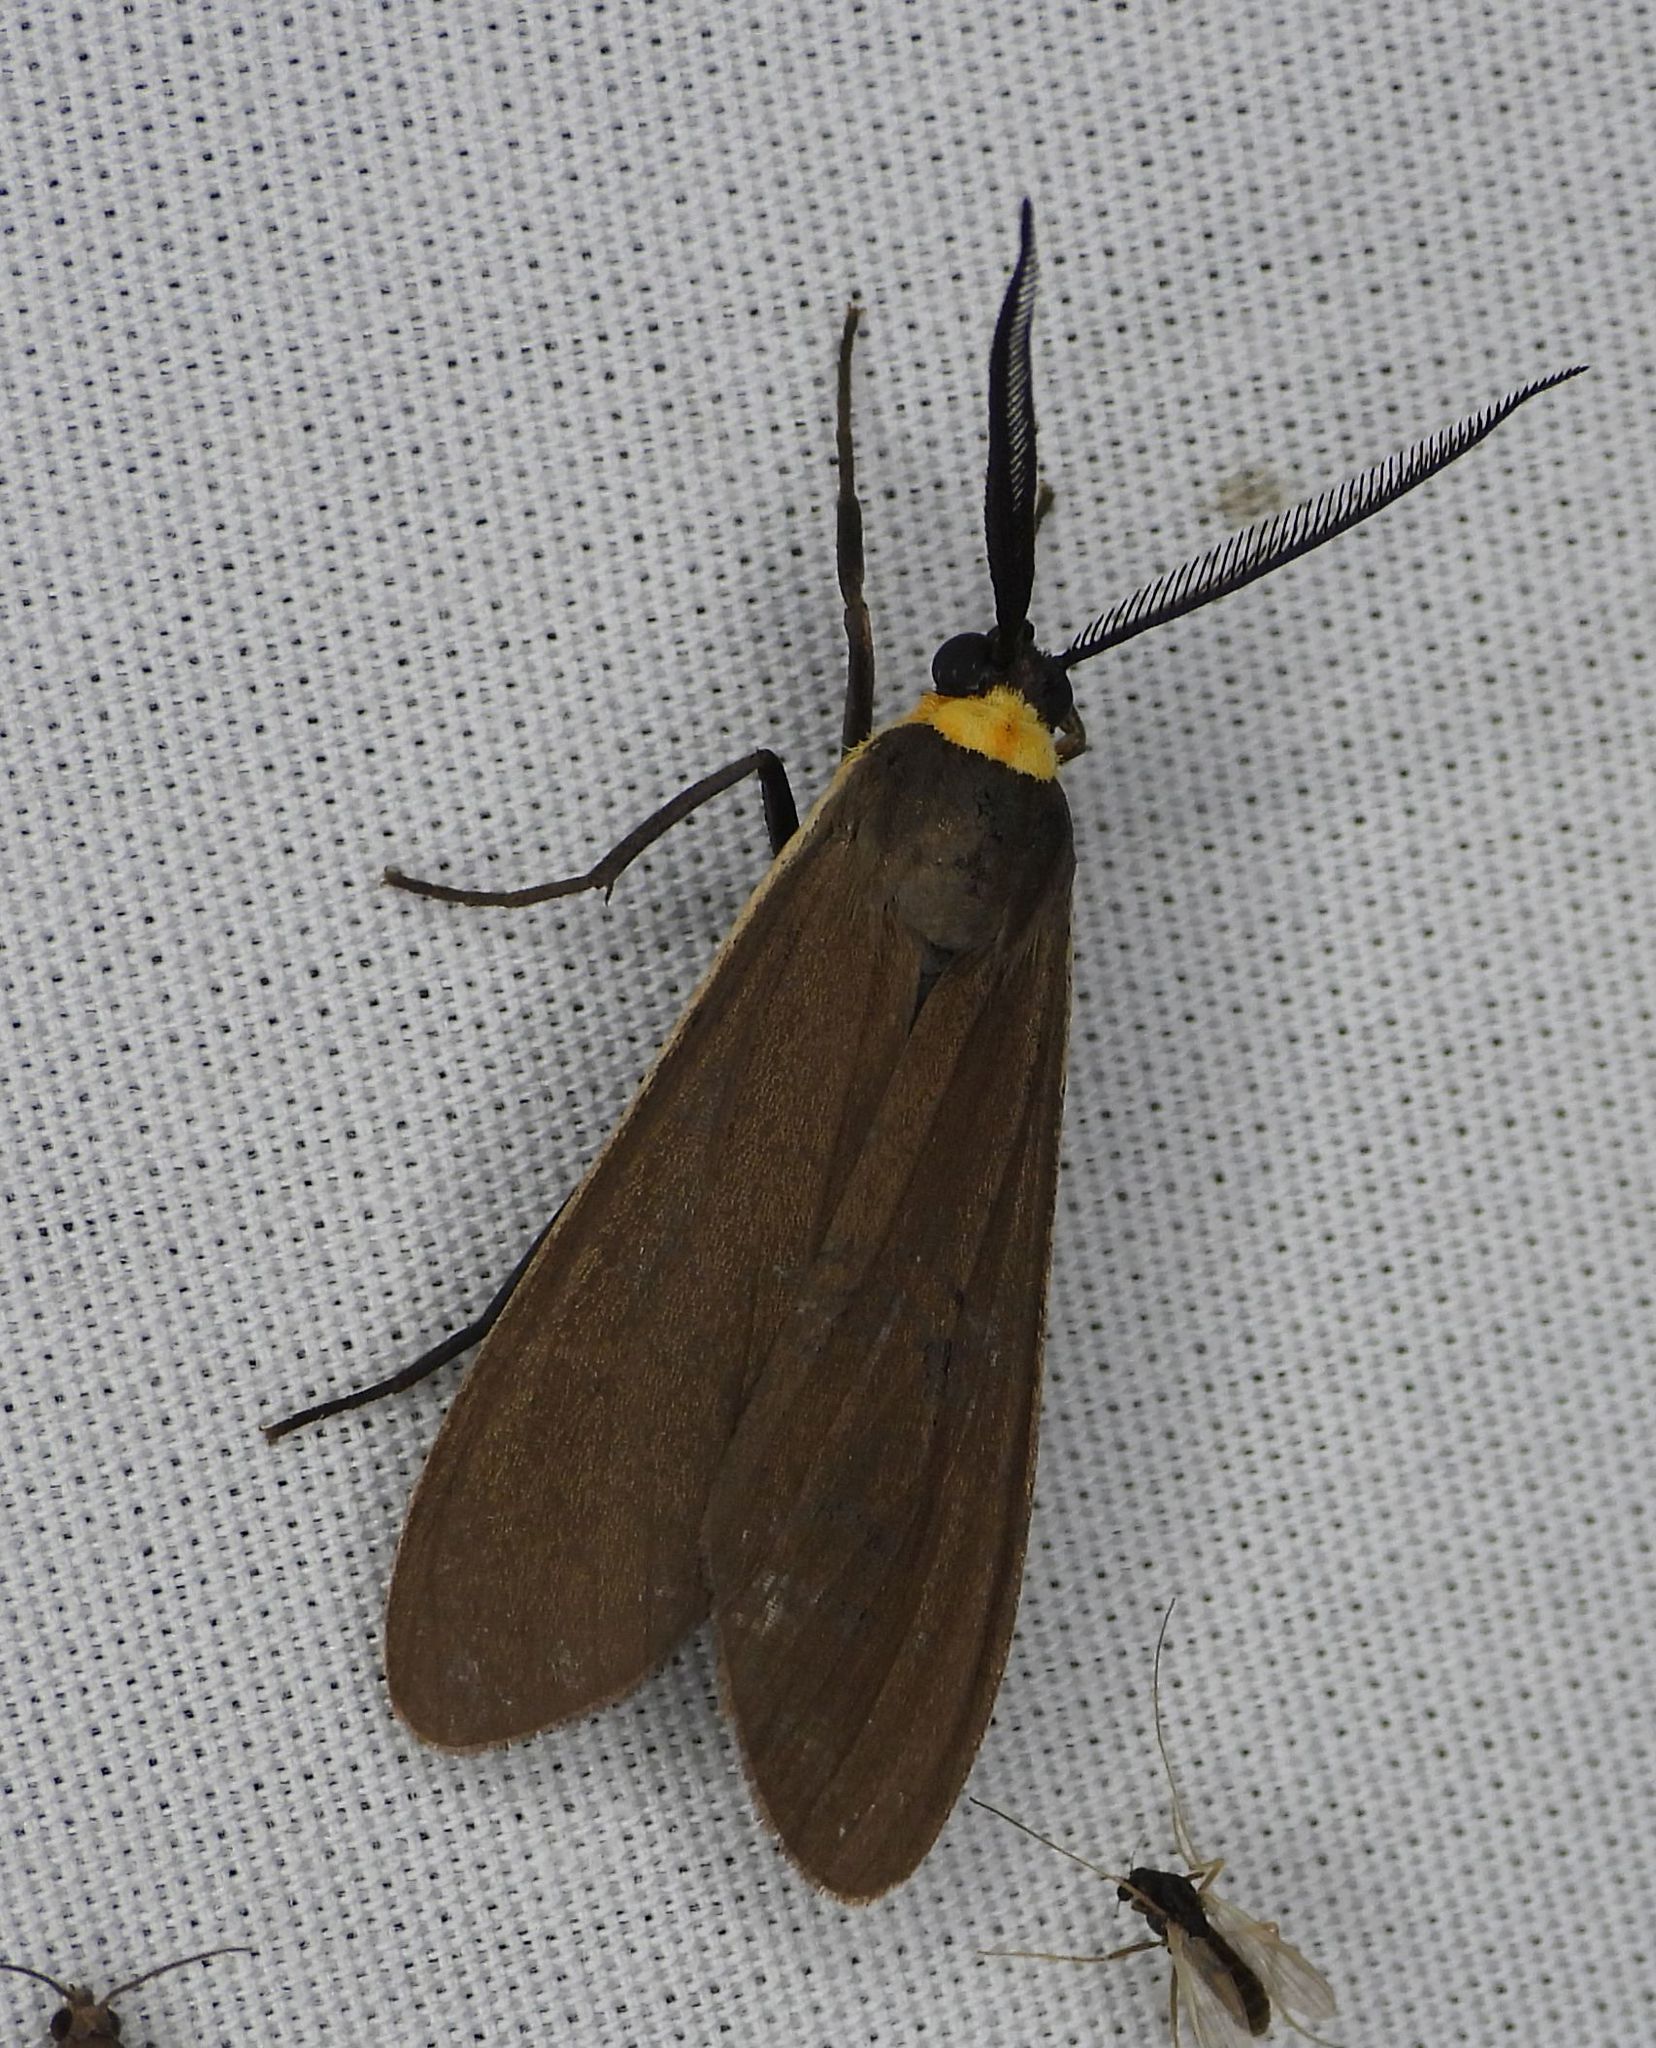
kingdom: Animalia
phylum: Arthropoda
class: Insecta
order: Lepidoptera
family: Erebidae
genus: Cisseps
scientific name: Cisseps fulvicollis
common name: Yellow-collared scape moth
